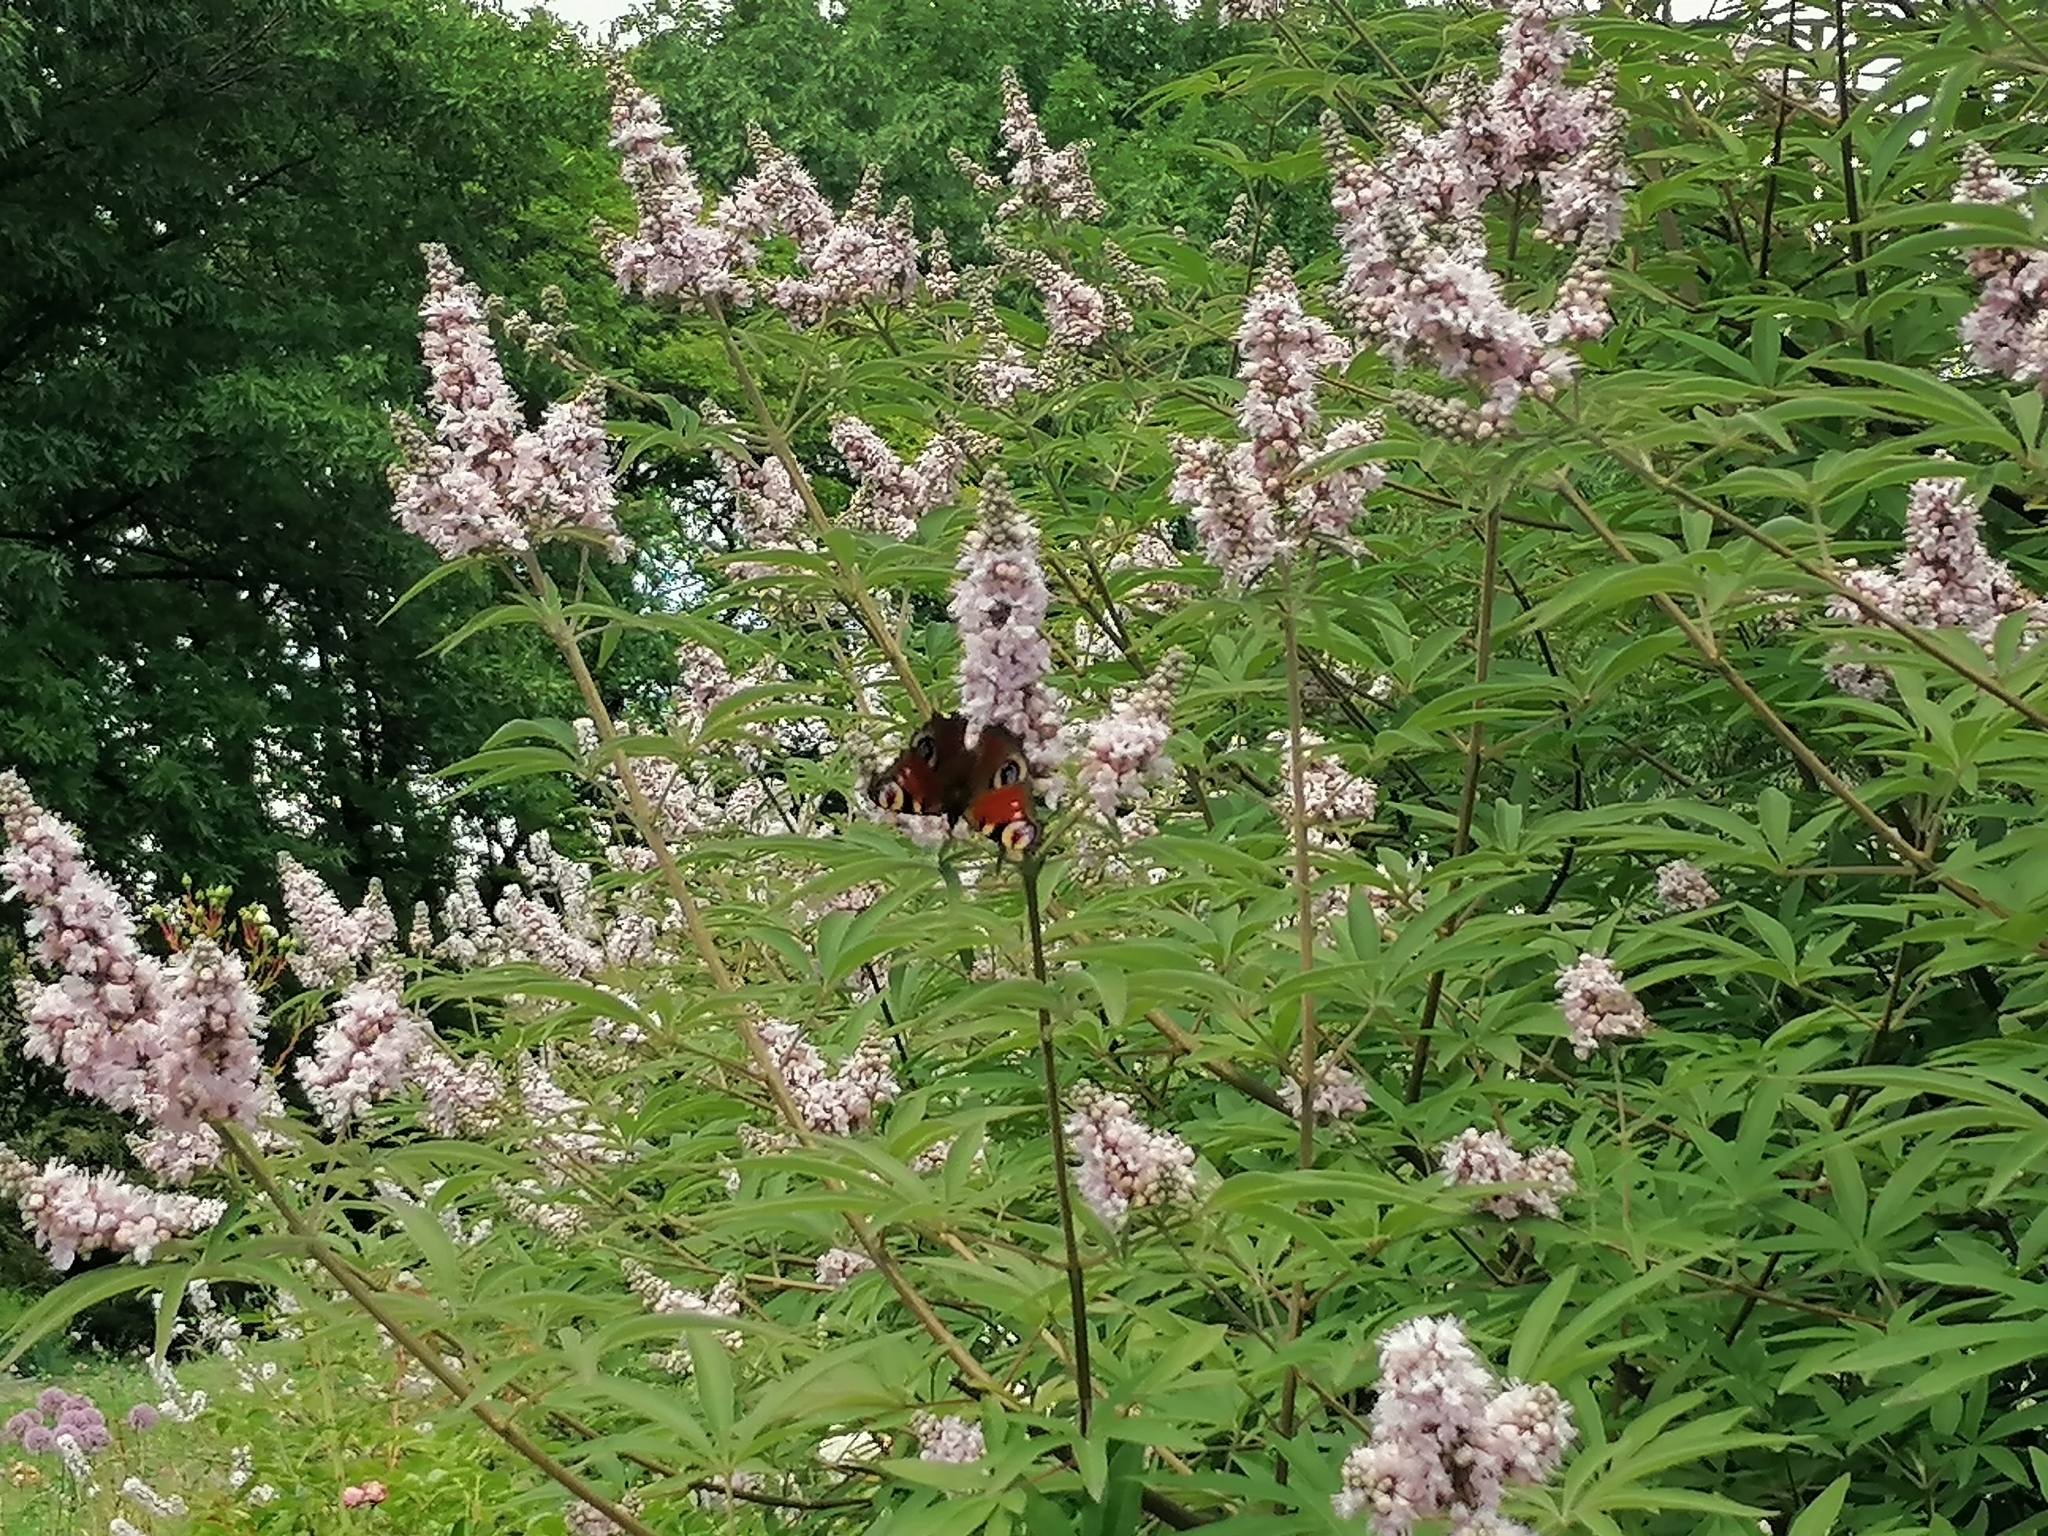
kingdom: Animalia
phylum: Arthropoda
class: Insecta
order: Lepidoptera
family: Nymphalidae
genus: Aglais
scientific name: Aglais io
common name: Peacock
